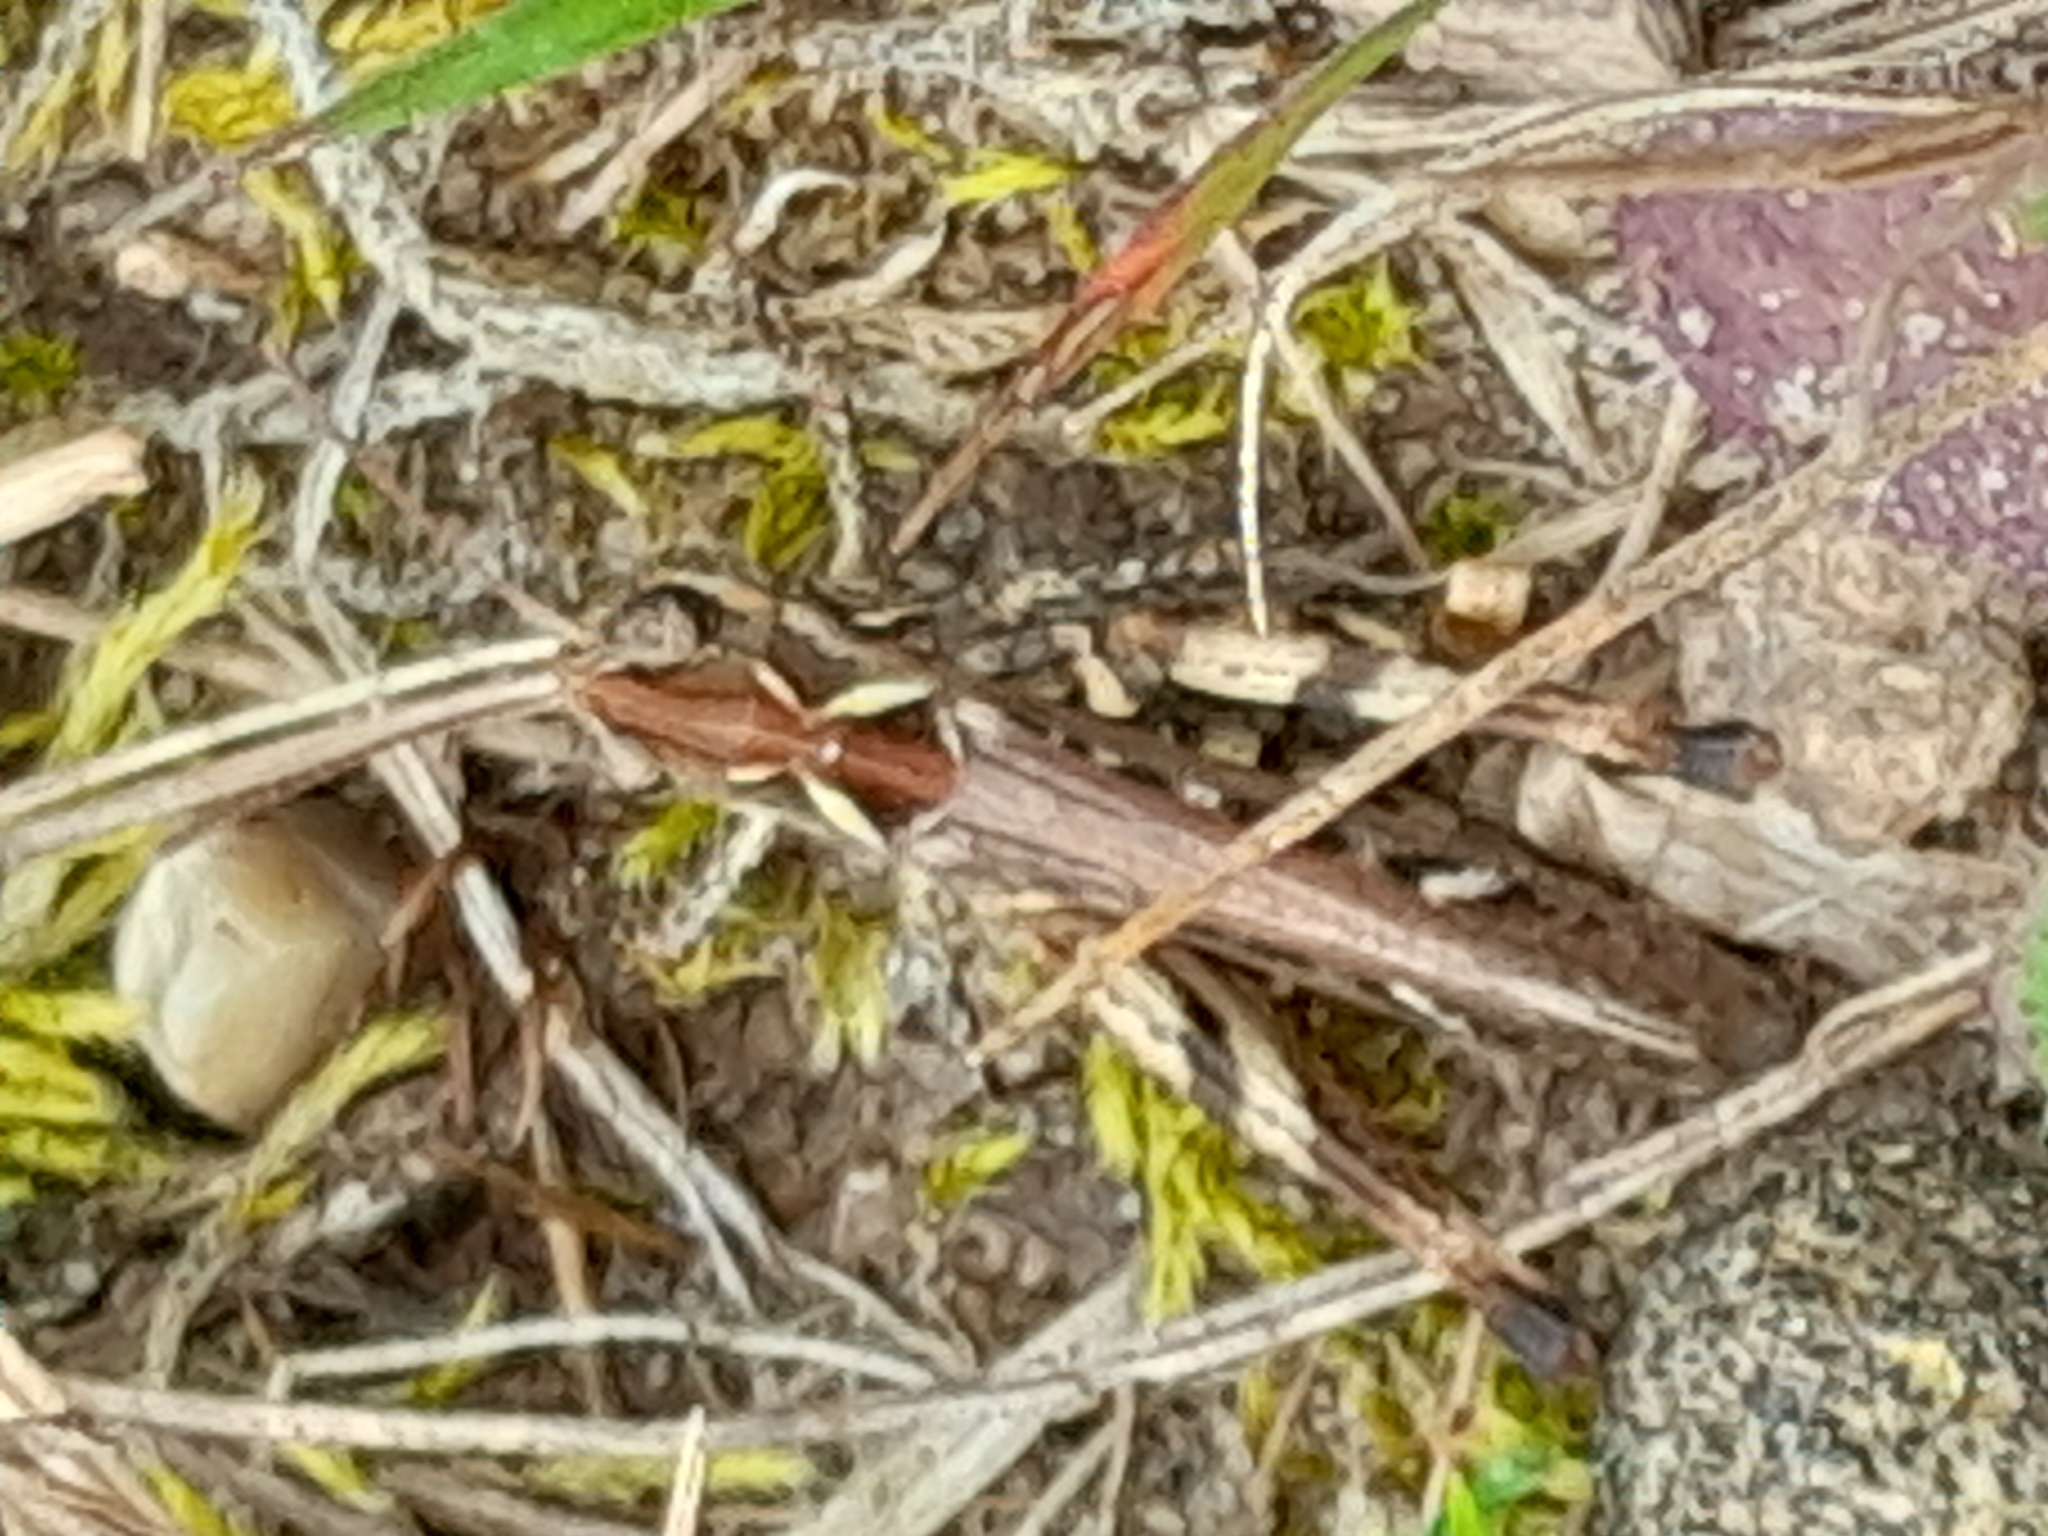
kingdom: Animalia
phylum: Arthropoda
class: Insecta
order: Orthoptera
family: Acrididae
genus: Myrmeleotettix
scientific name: Myrmeleotettix maculatus
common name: Mottled grasshopper
